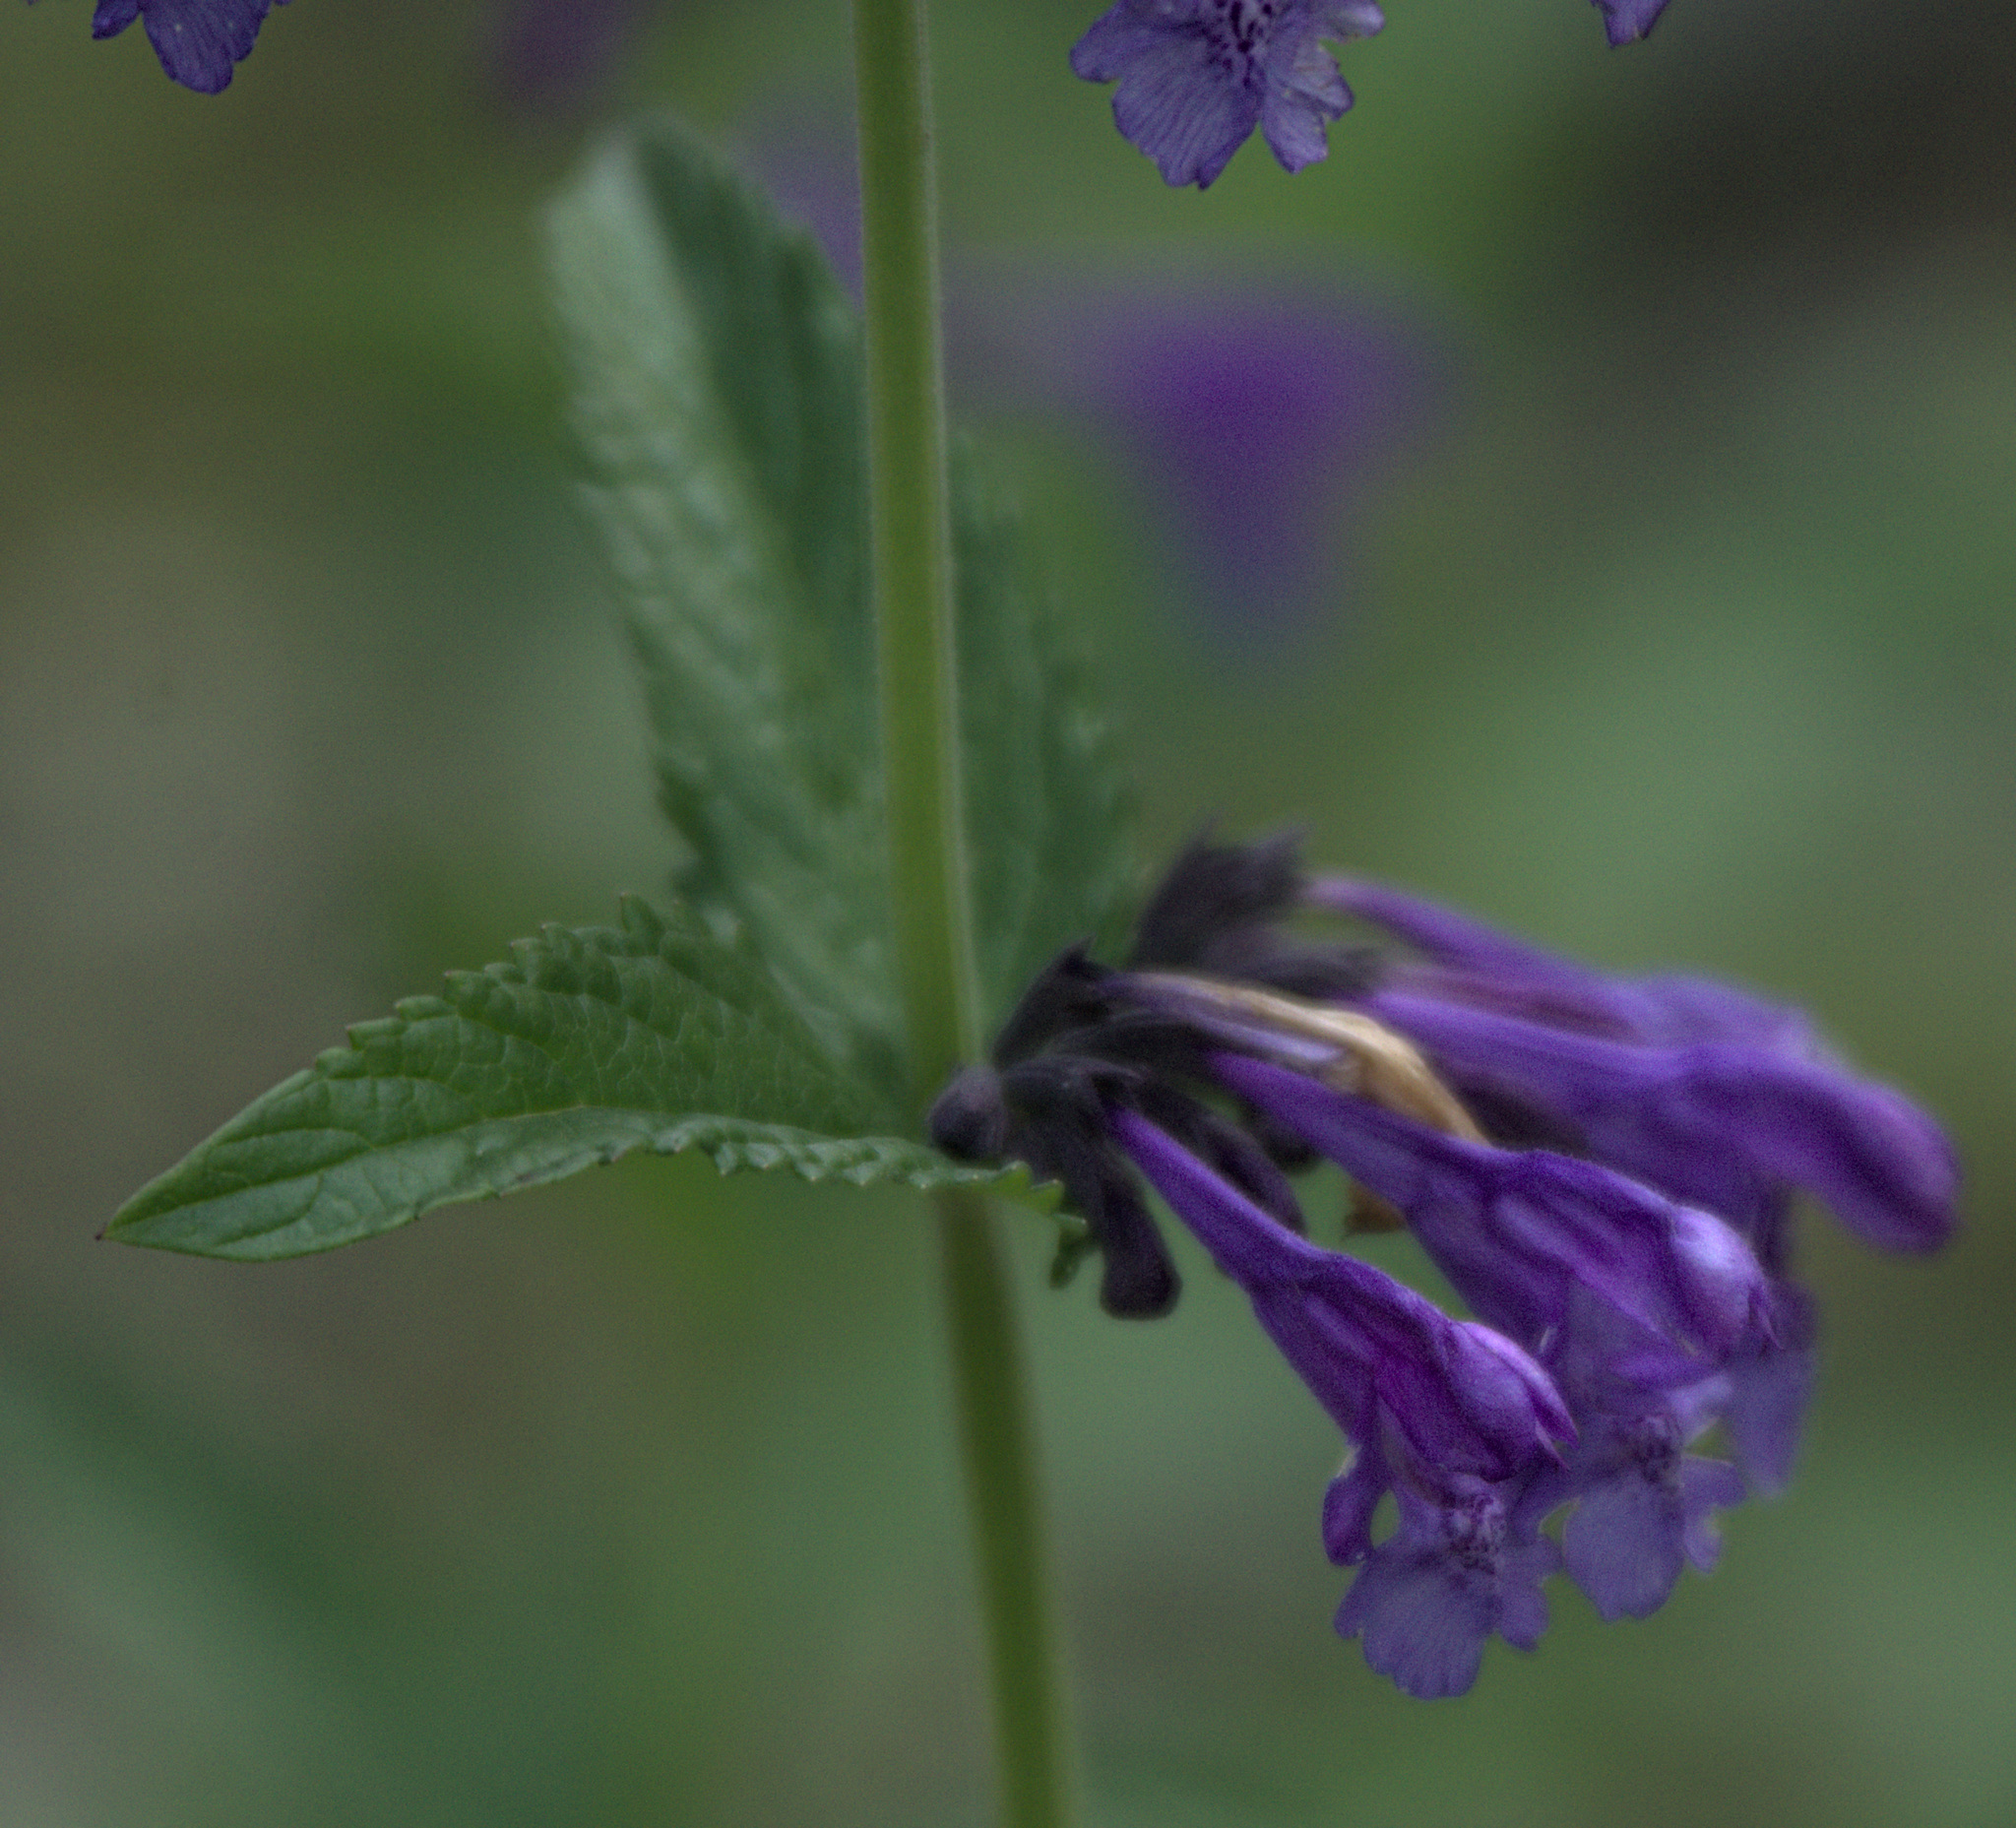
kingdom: Plantae
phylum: Tracheophyta
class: Magnoliopsida
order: Lamiales
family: Lamiaceae
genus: Nepeta
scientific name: Nepeta sibirica
